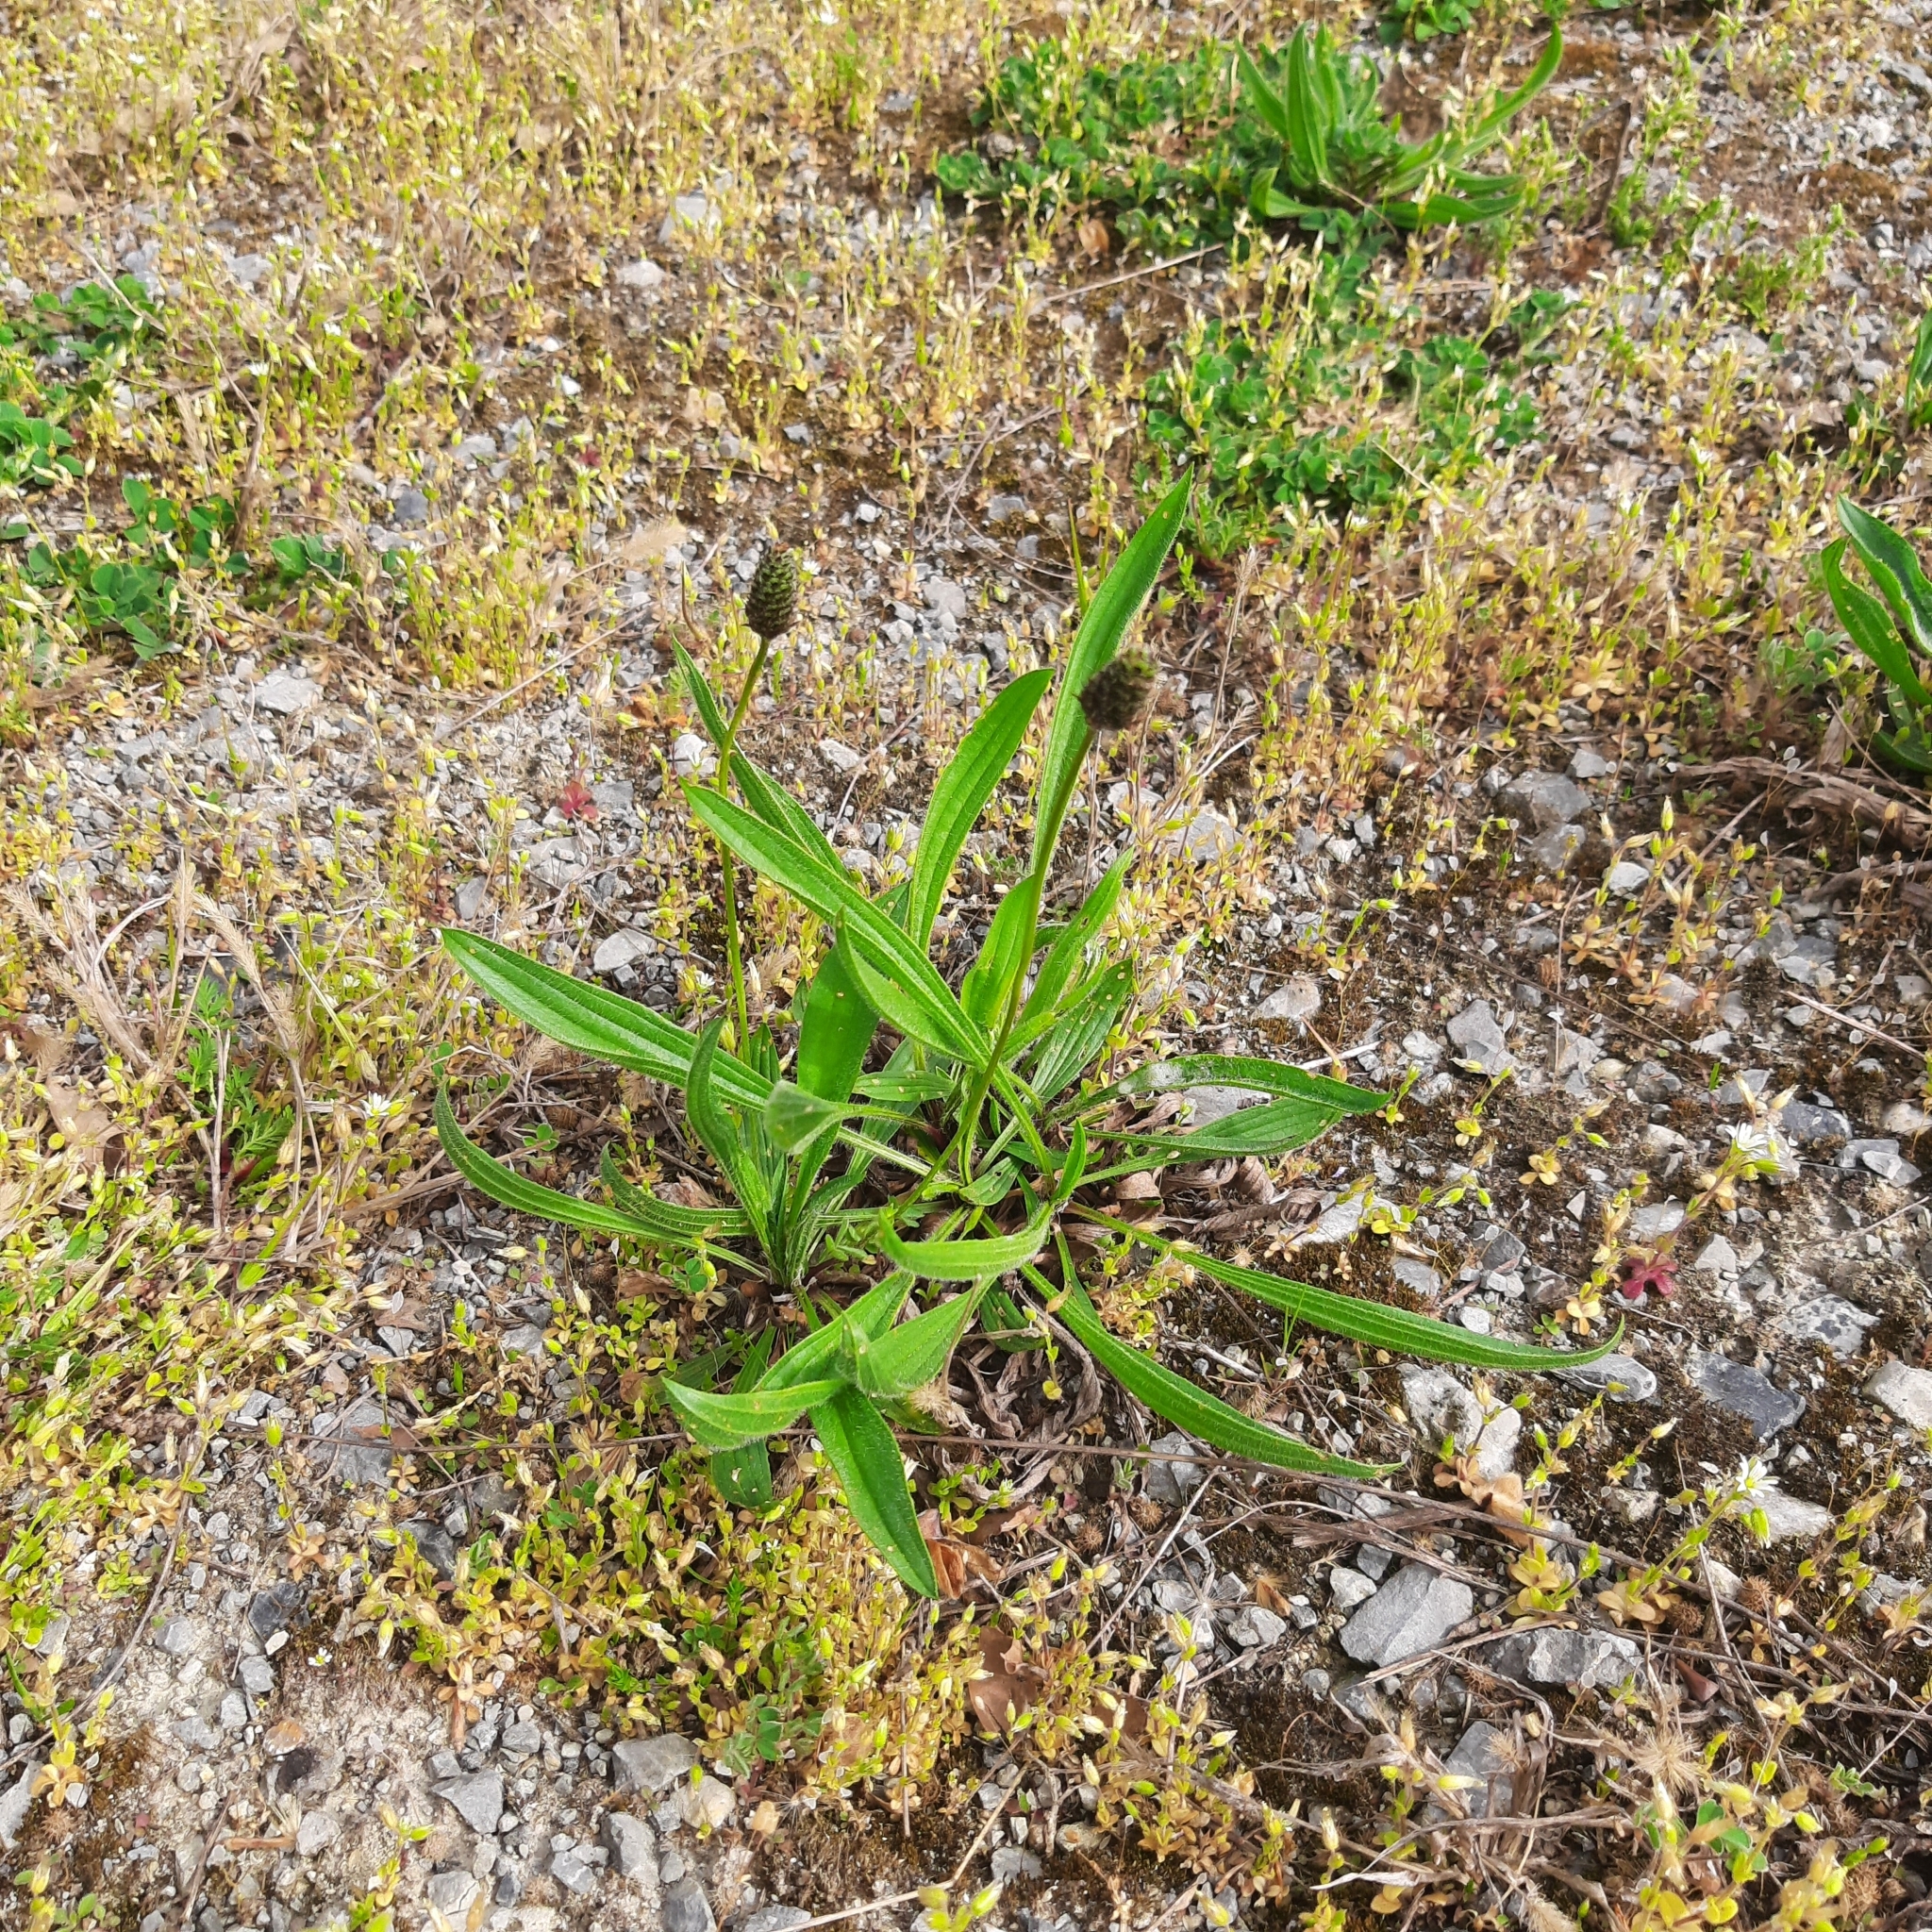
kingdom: Plantae
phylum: Tracheophyta
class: Magnoliopsida
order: Lamiales
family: Plantaginaceae
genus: Plantago
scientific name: Plantago lanceolata
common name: Ribwort plantain
